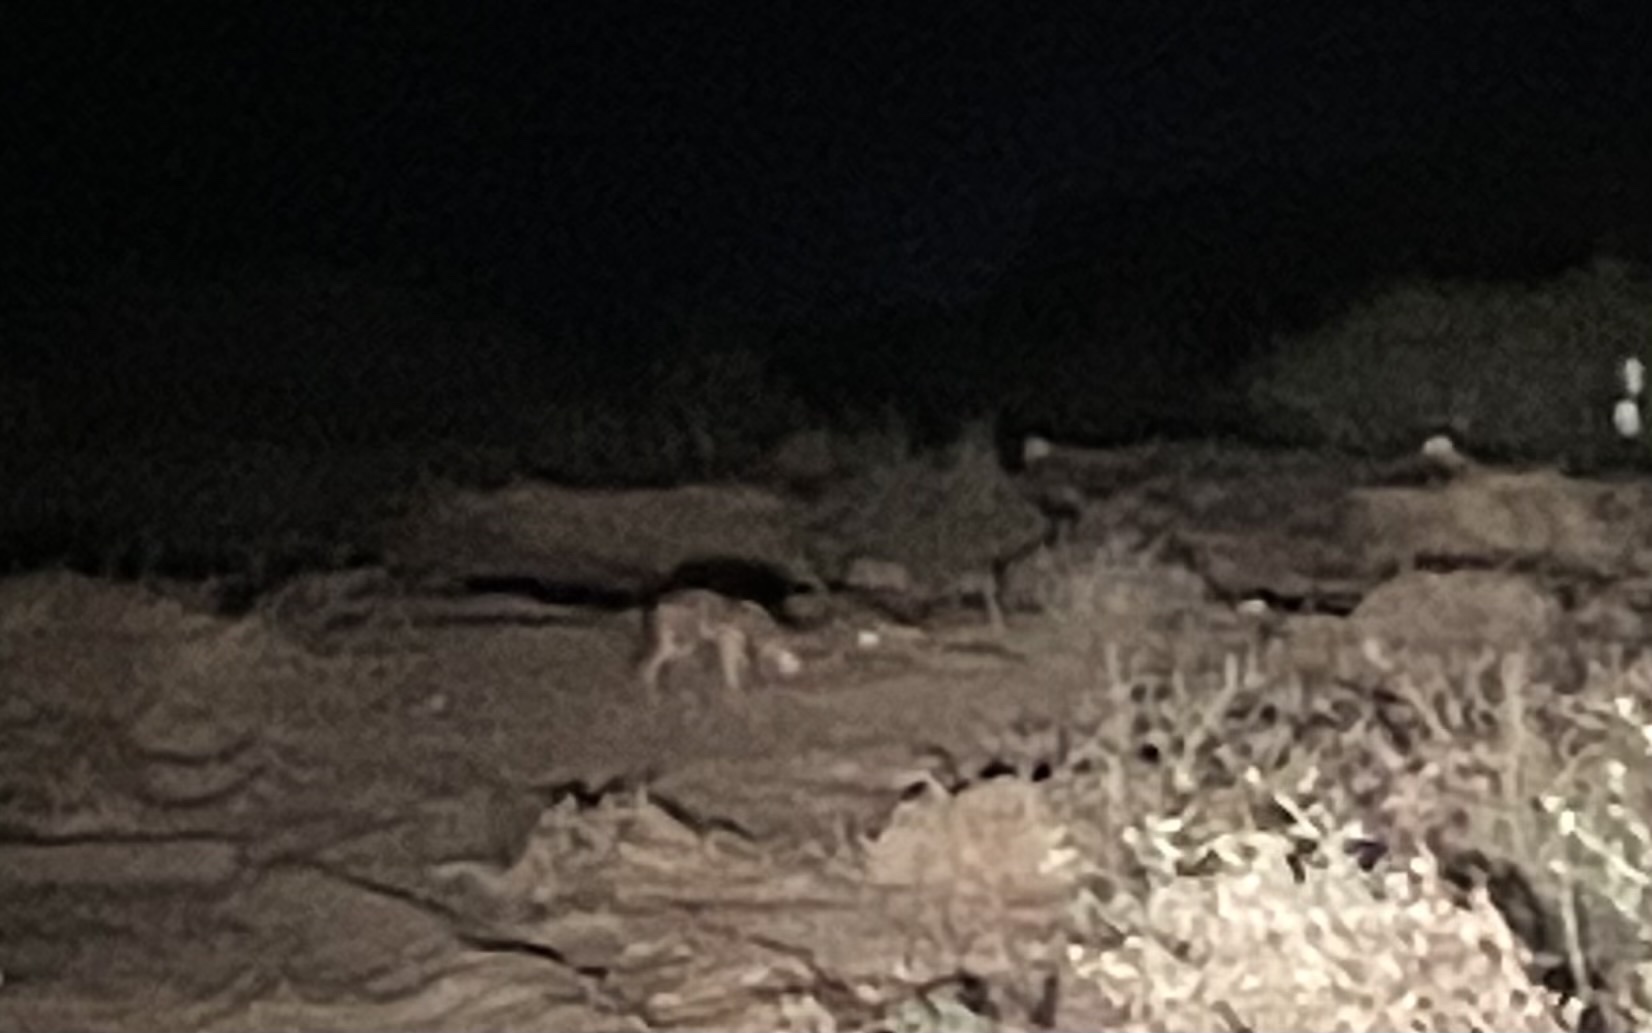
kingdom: Animalia
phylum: Chordata
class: Mammalia
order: Carnivora
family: Canidae
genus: Canis
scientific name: Canis aureus
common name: Golden jackal
